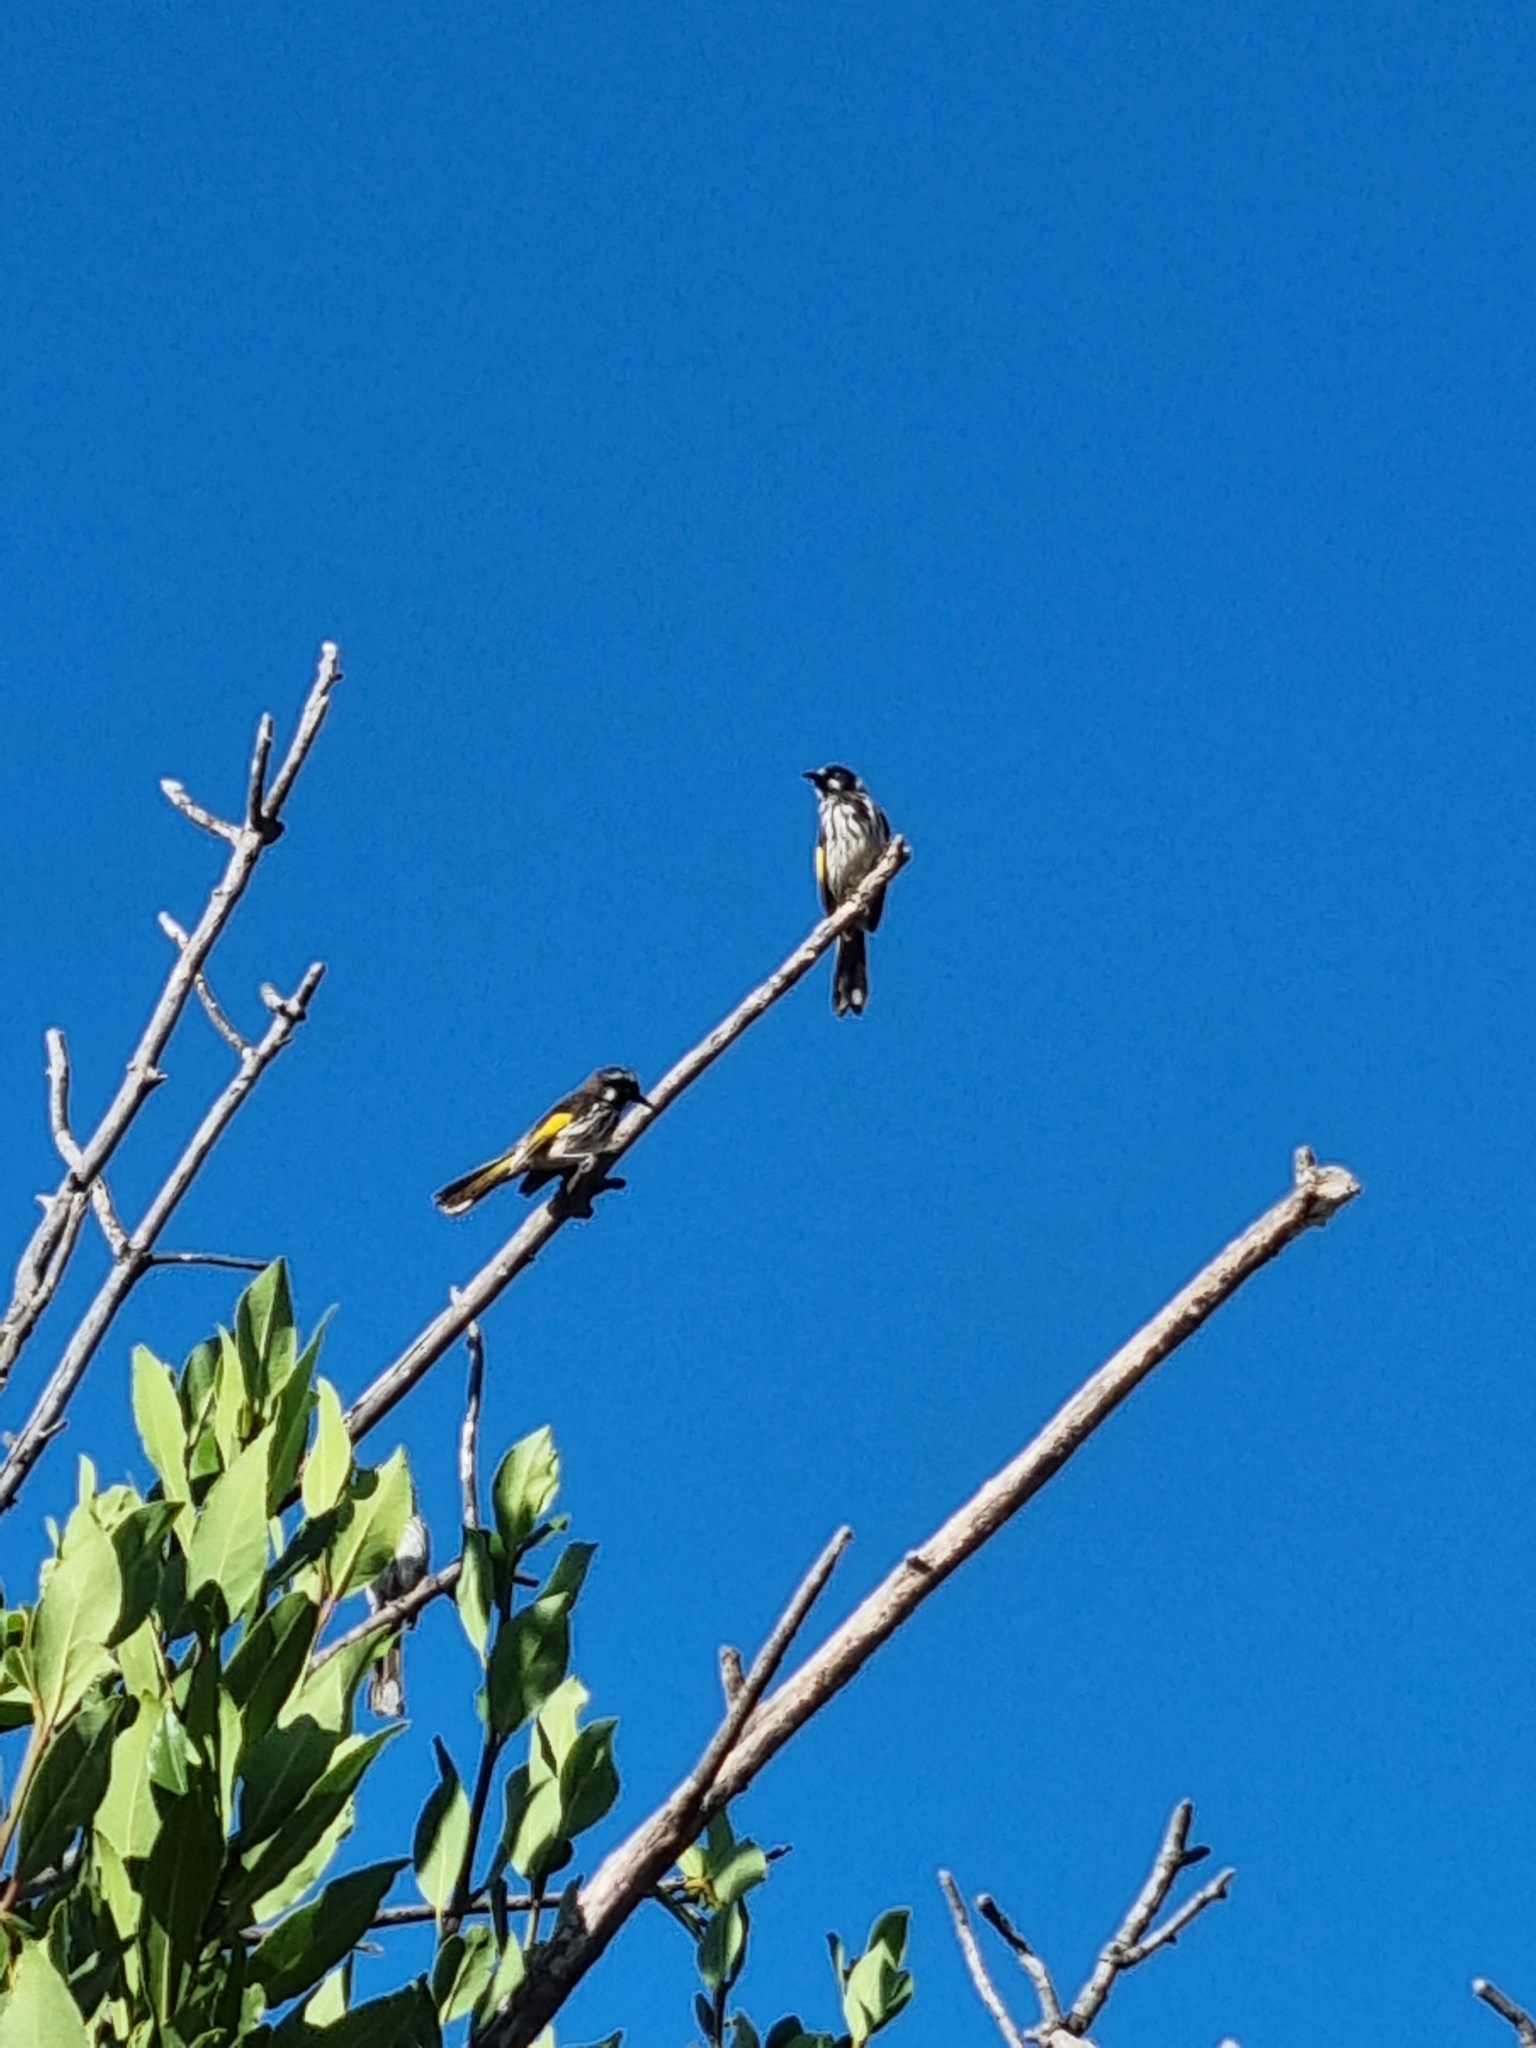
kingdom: Animalia
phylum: Chordata
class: Aves
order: Passeriformes
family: Meliphagidae
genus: Phylidonyris
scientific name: Phylidonyris novaehollandiae
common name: New holland honeyeater
